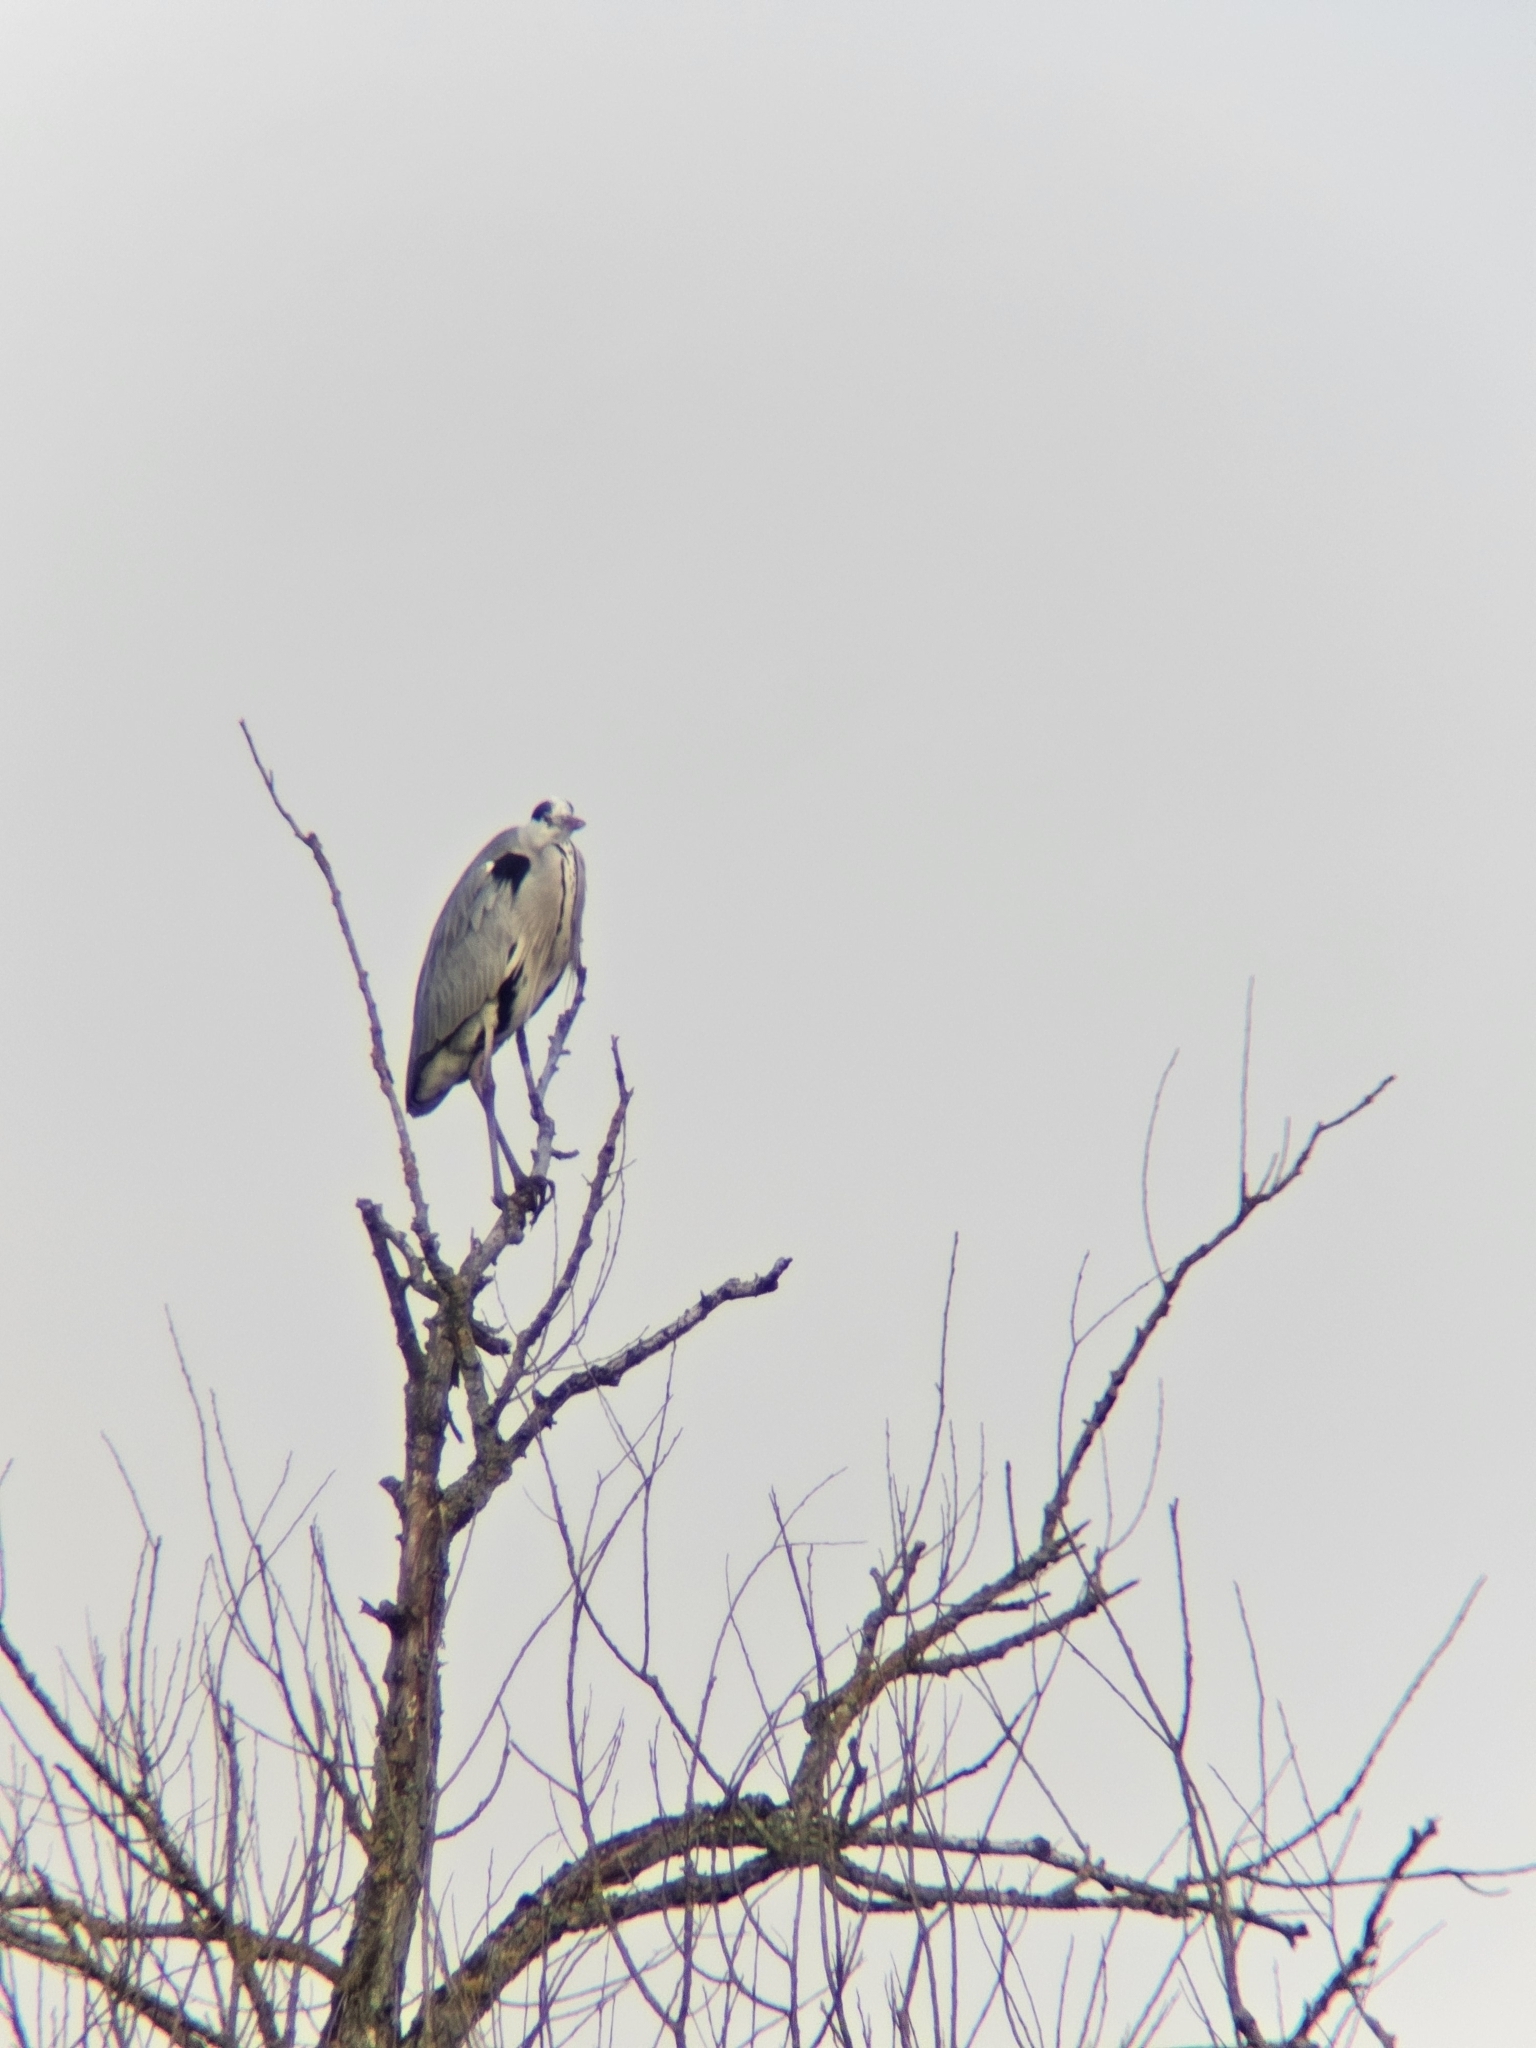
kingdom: Animalia
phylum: Chordata
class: Aves
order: Pelecaniformes
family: Ardeidae
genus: Ardea
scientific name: Ardea cinerea
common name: Grey heron
